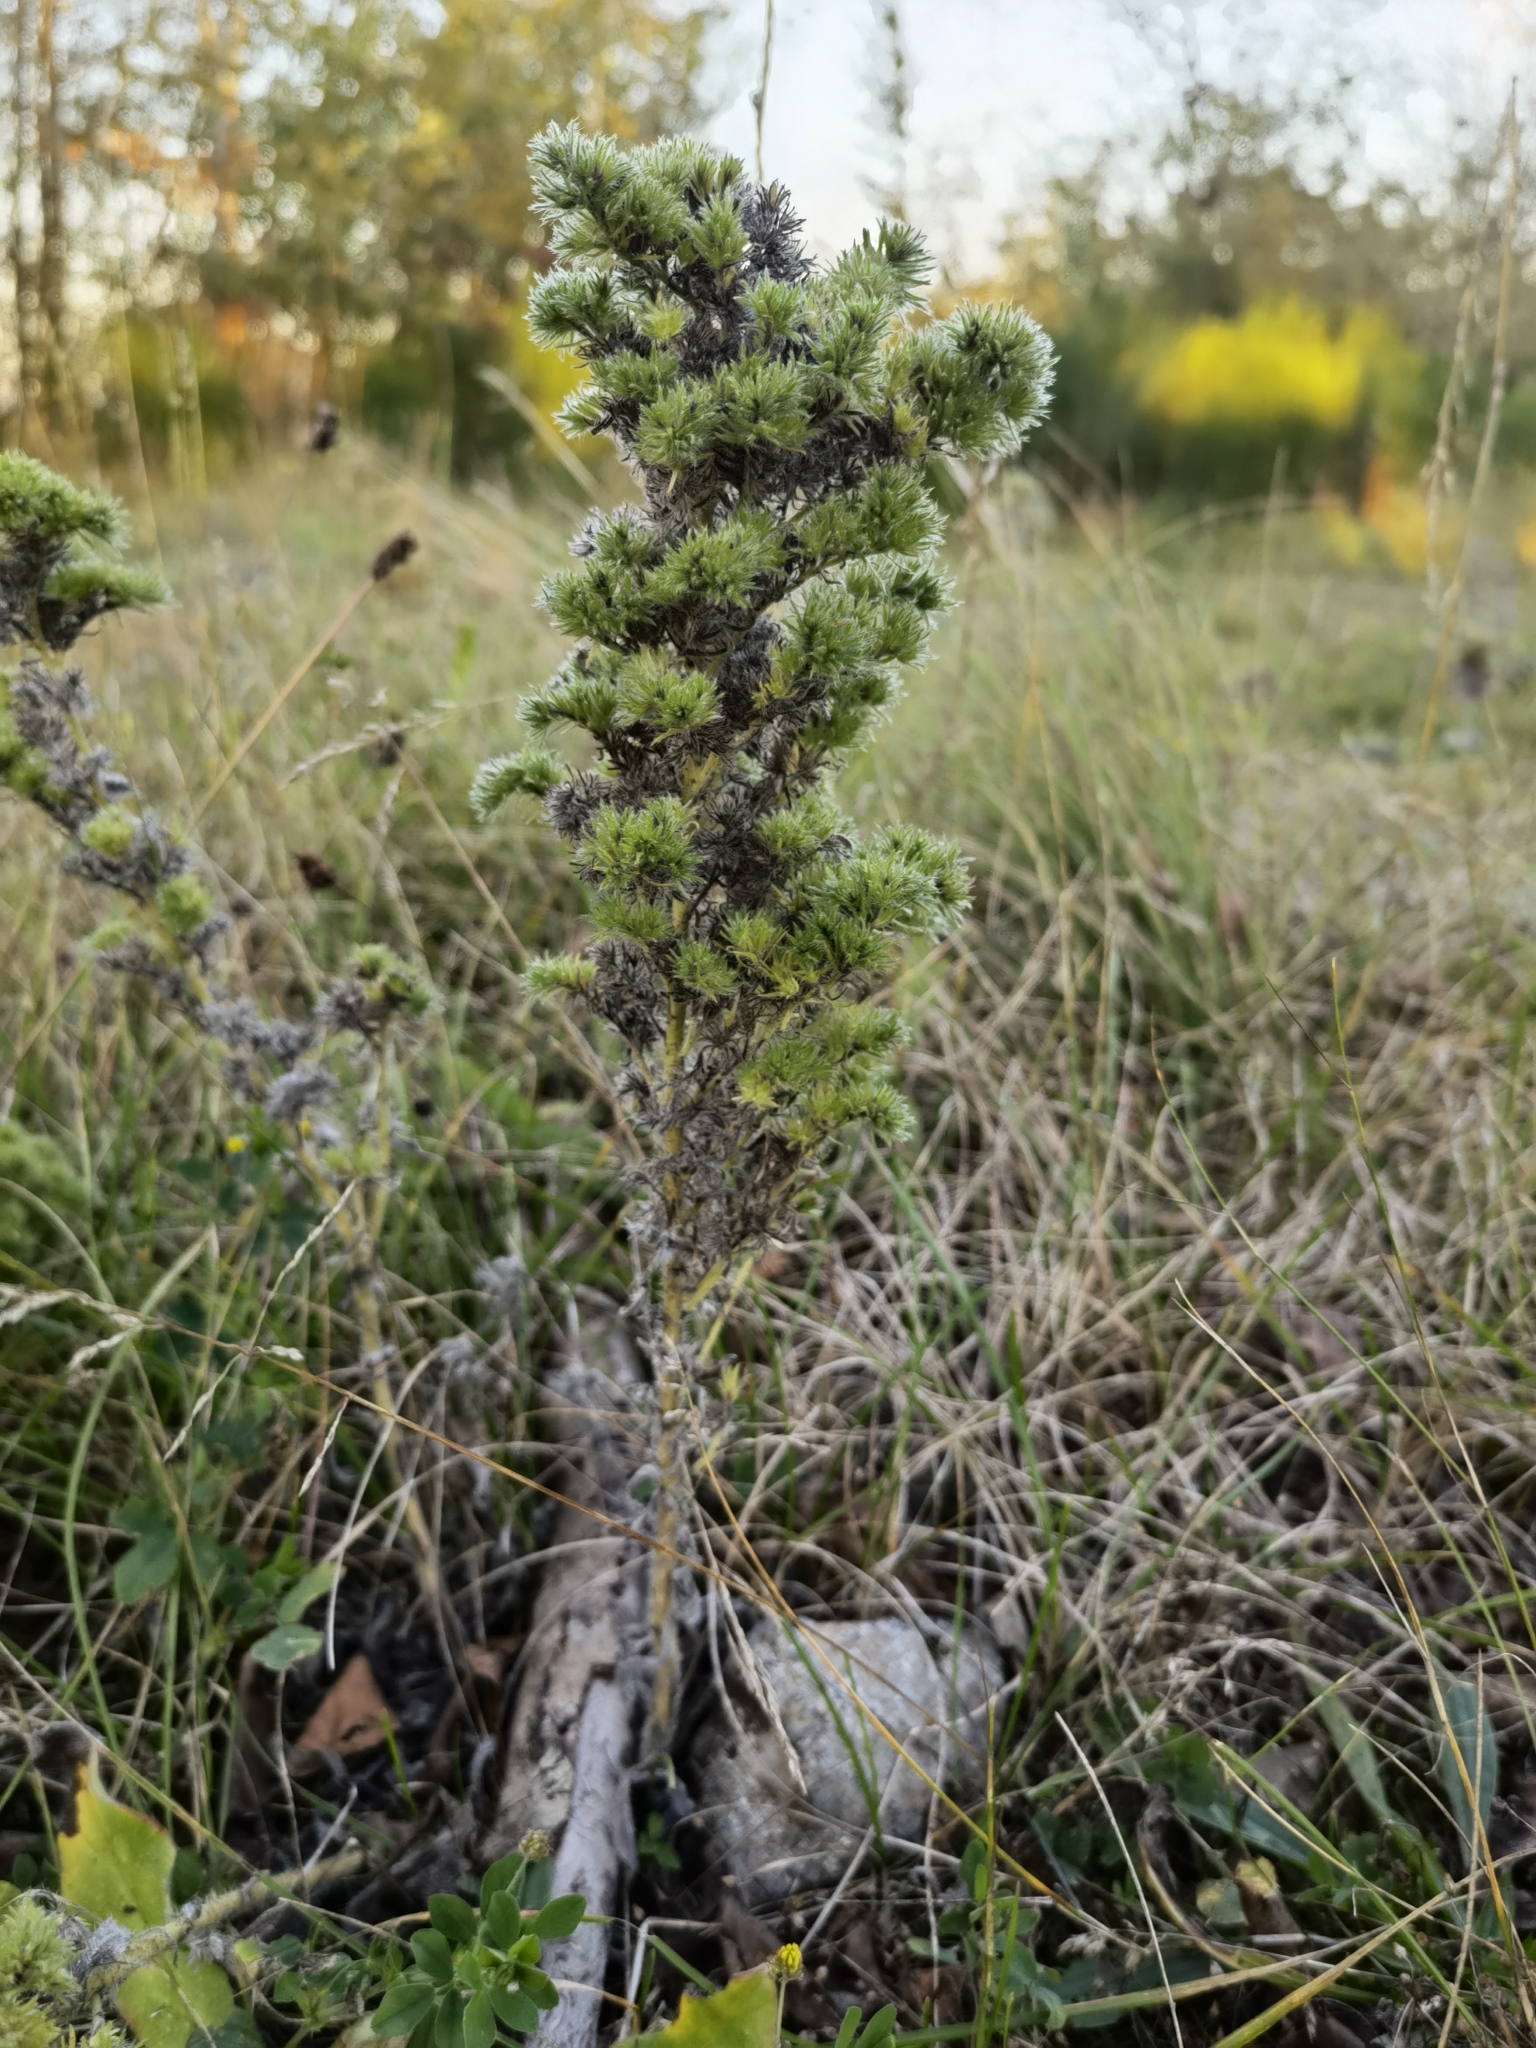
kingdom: Plantae
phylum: Tracheophyta
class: Magnoliopsida
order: Boraginales
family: Boraginaceae
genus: Echium
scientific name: Echium vulgare
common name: Common viper's bugloss
